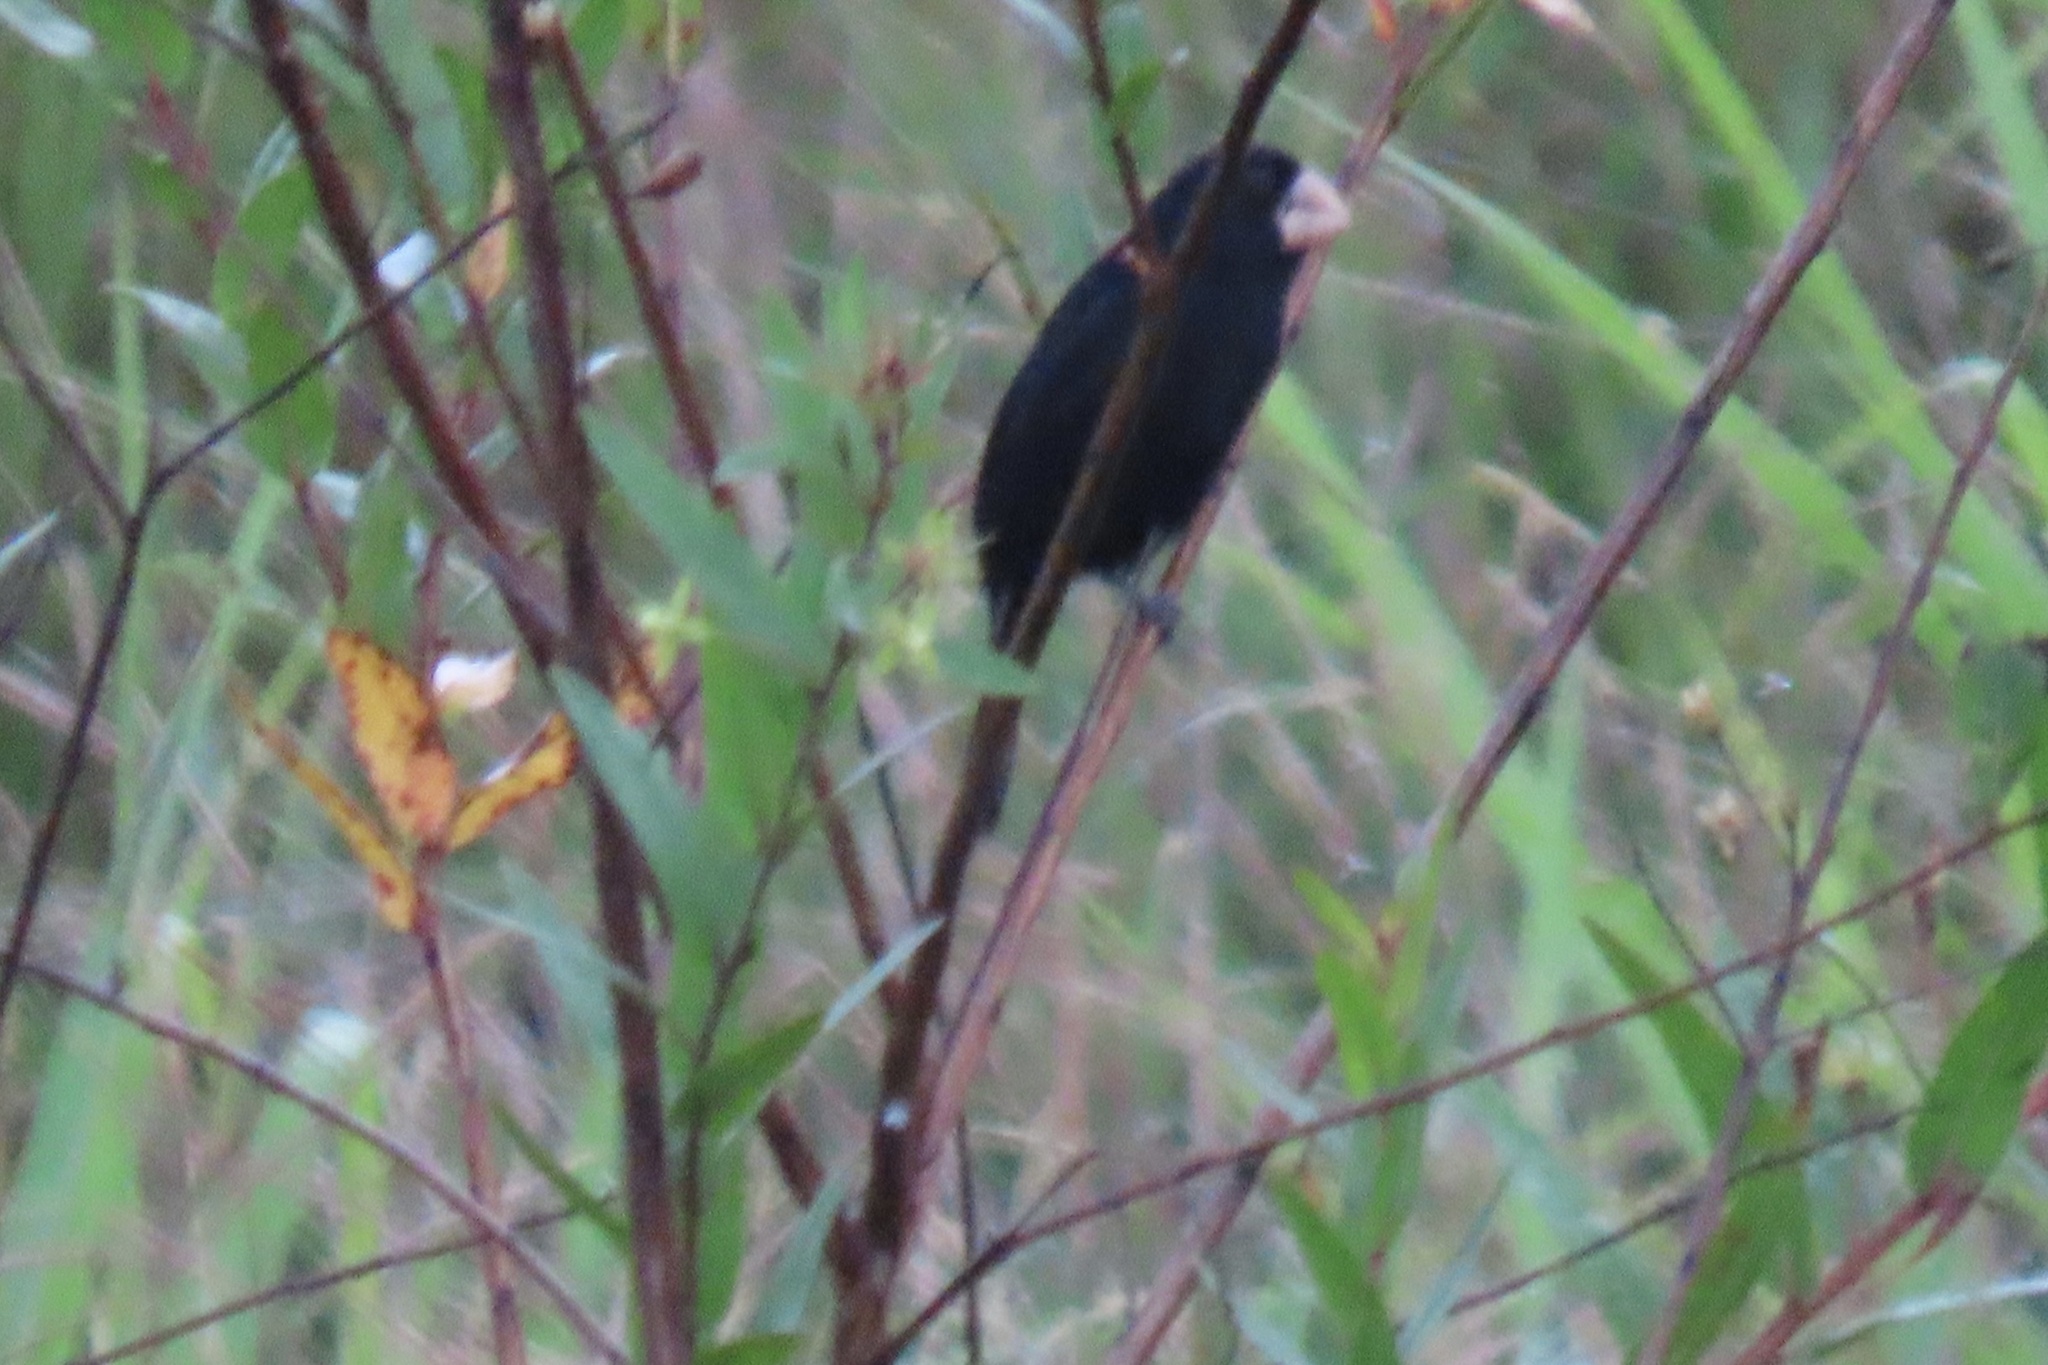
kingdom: Animalia
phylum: Chordata
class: Aves
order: Passeriformes
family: Thraupidae
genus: Sporophila
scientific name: Sporophila nuttingi
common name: Nicaraguan seed-finch
